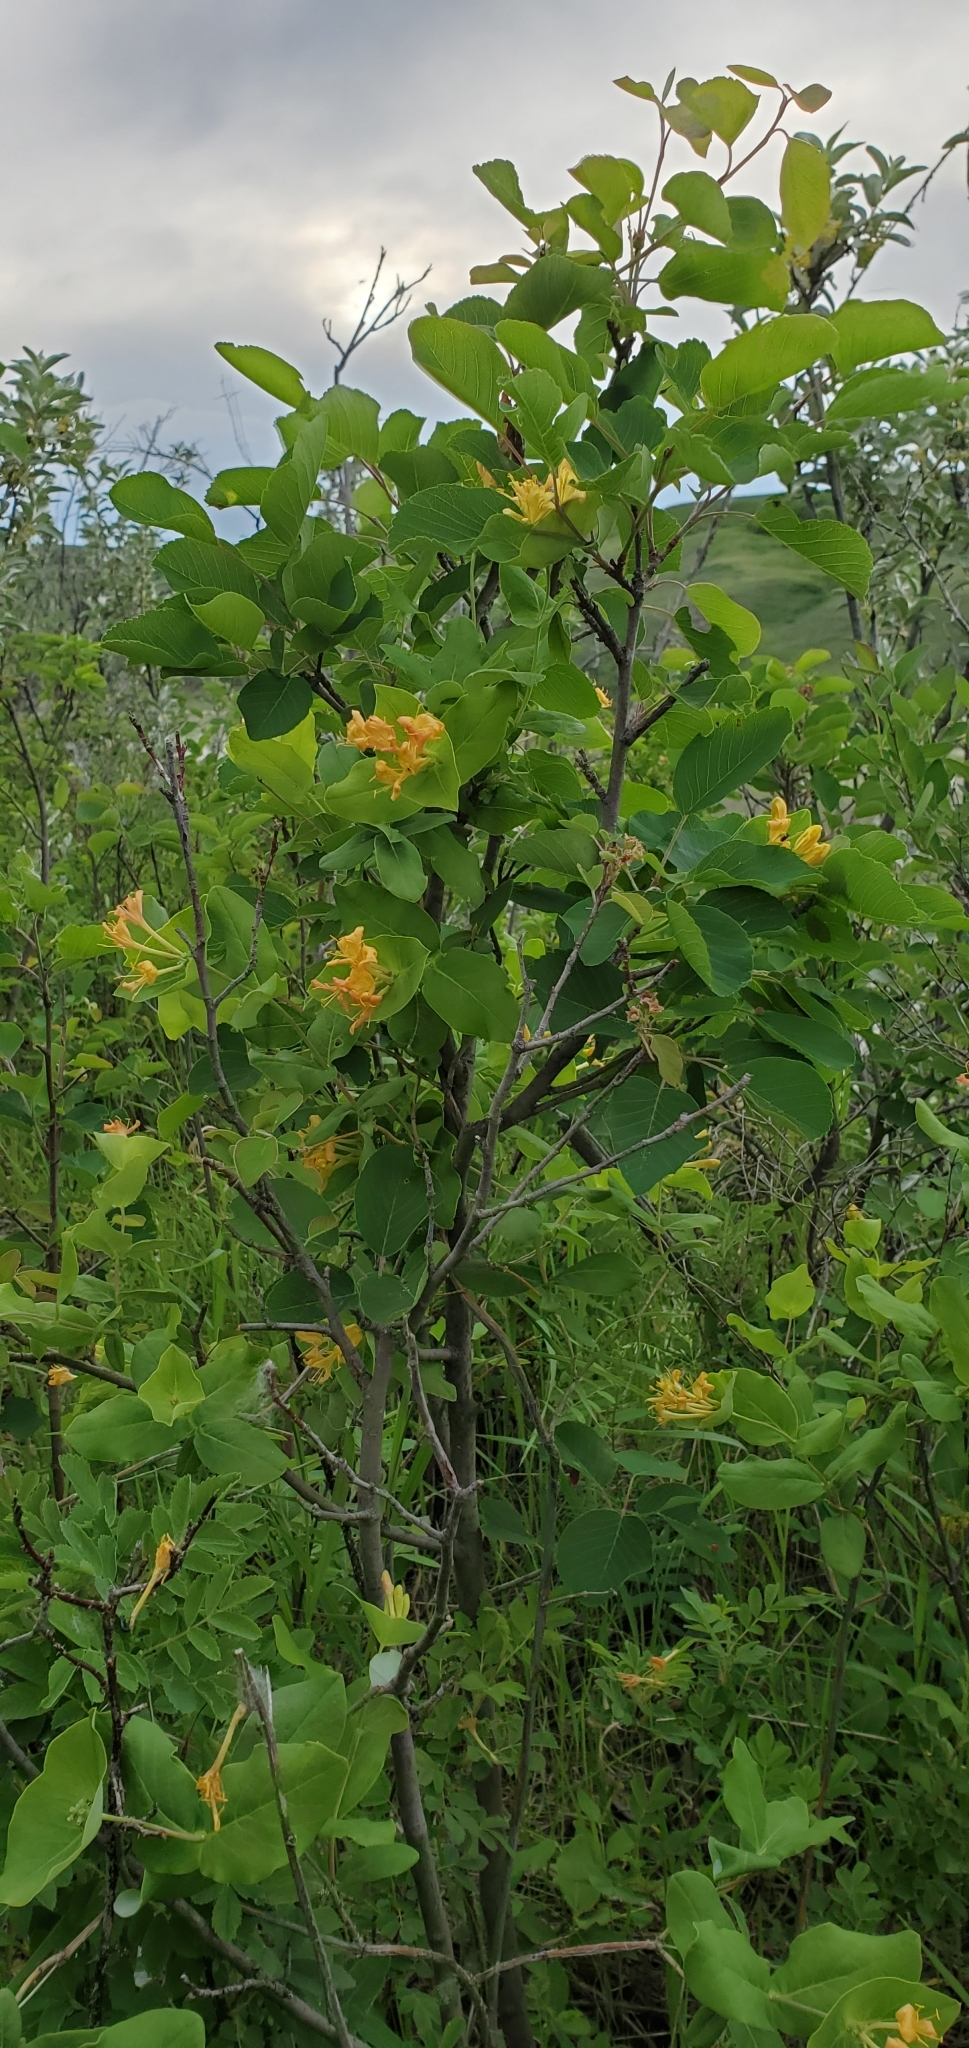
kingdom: Plantae
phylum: Tracheophyta
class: Magnoliopsida
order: Dipsacales
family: Caprifoliaceae
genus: Lonicera
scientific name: Lonicera dioica
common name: Limber honeysuckle
